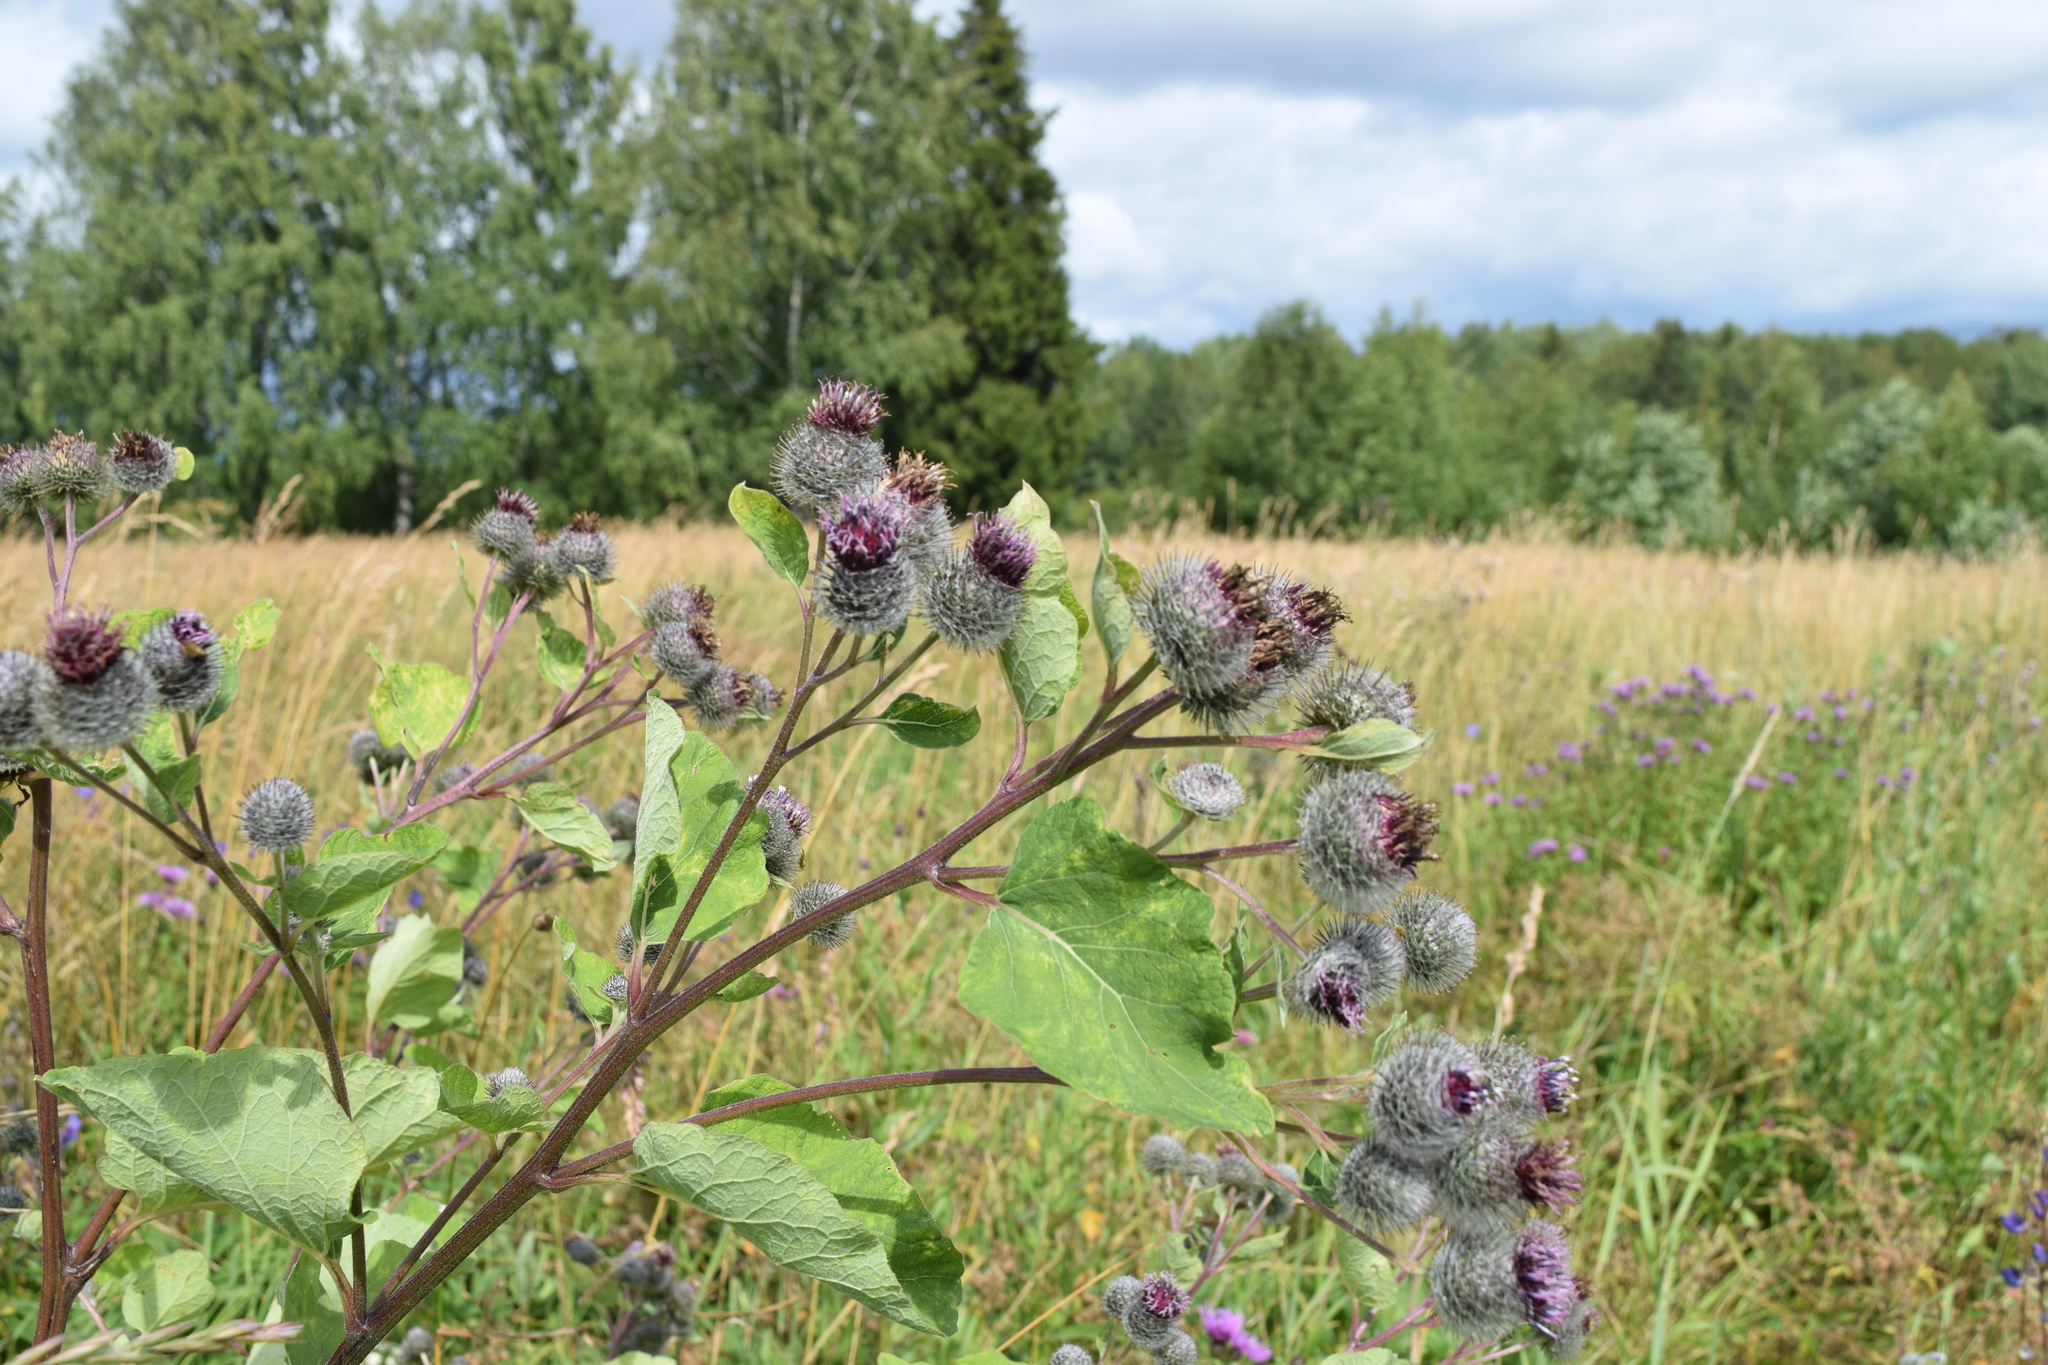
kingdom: Plantae
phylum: Tracheophyta
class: Magnoliopsida
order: Asterales
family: Asteraceae
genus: Arctium
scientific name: Arctium tomentosum
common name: Woolly burdock
